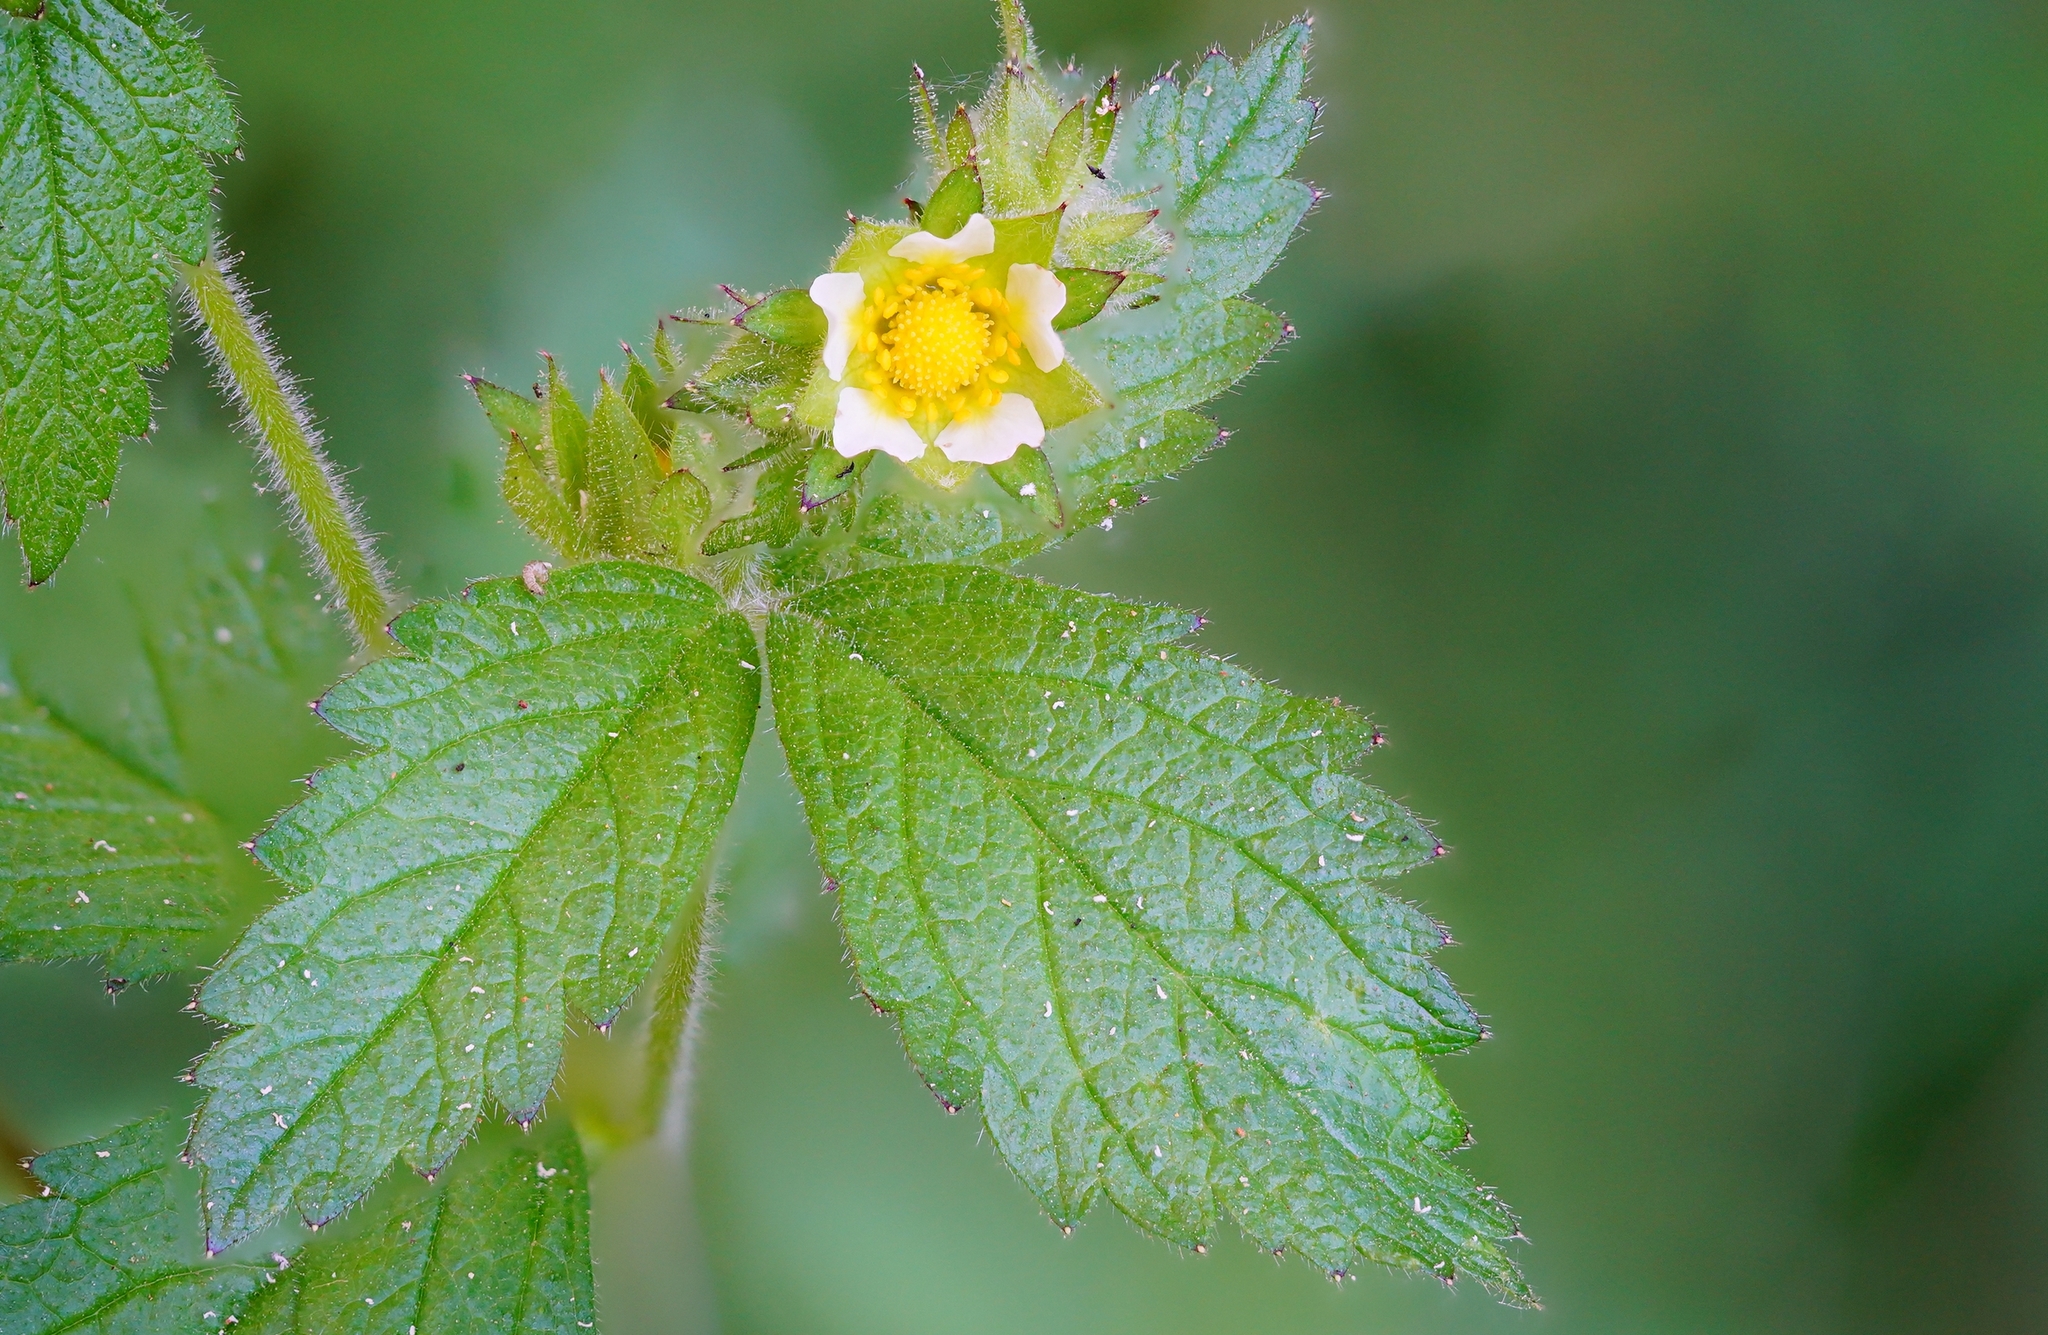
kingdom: Plantae
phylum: Tracheophyta
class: Magnoliopsida
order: Rosales
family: Rosaceae
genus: Drymocallis
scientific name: Drymocallis glandulosa
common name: Sticky cinquefoil
